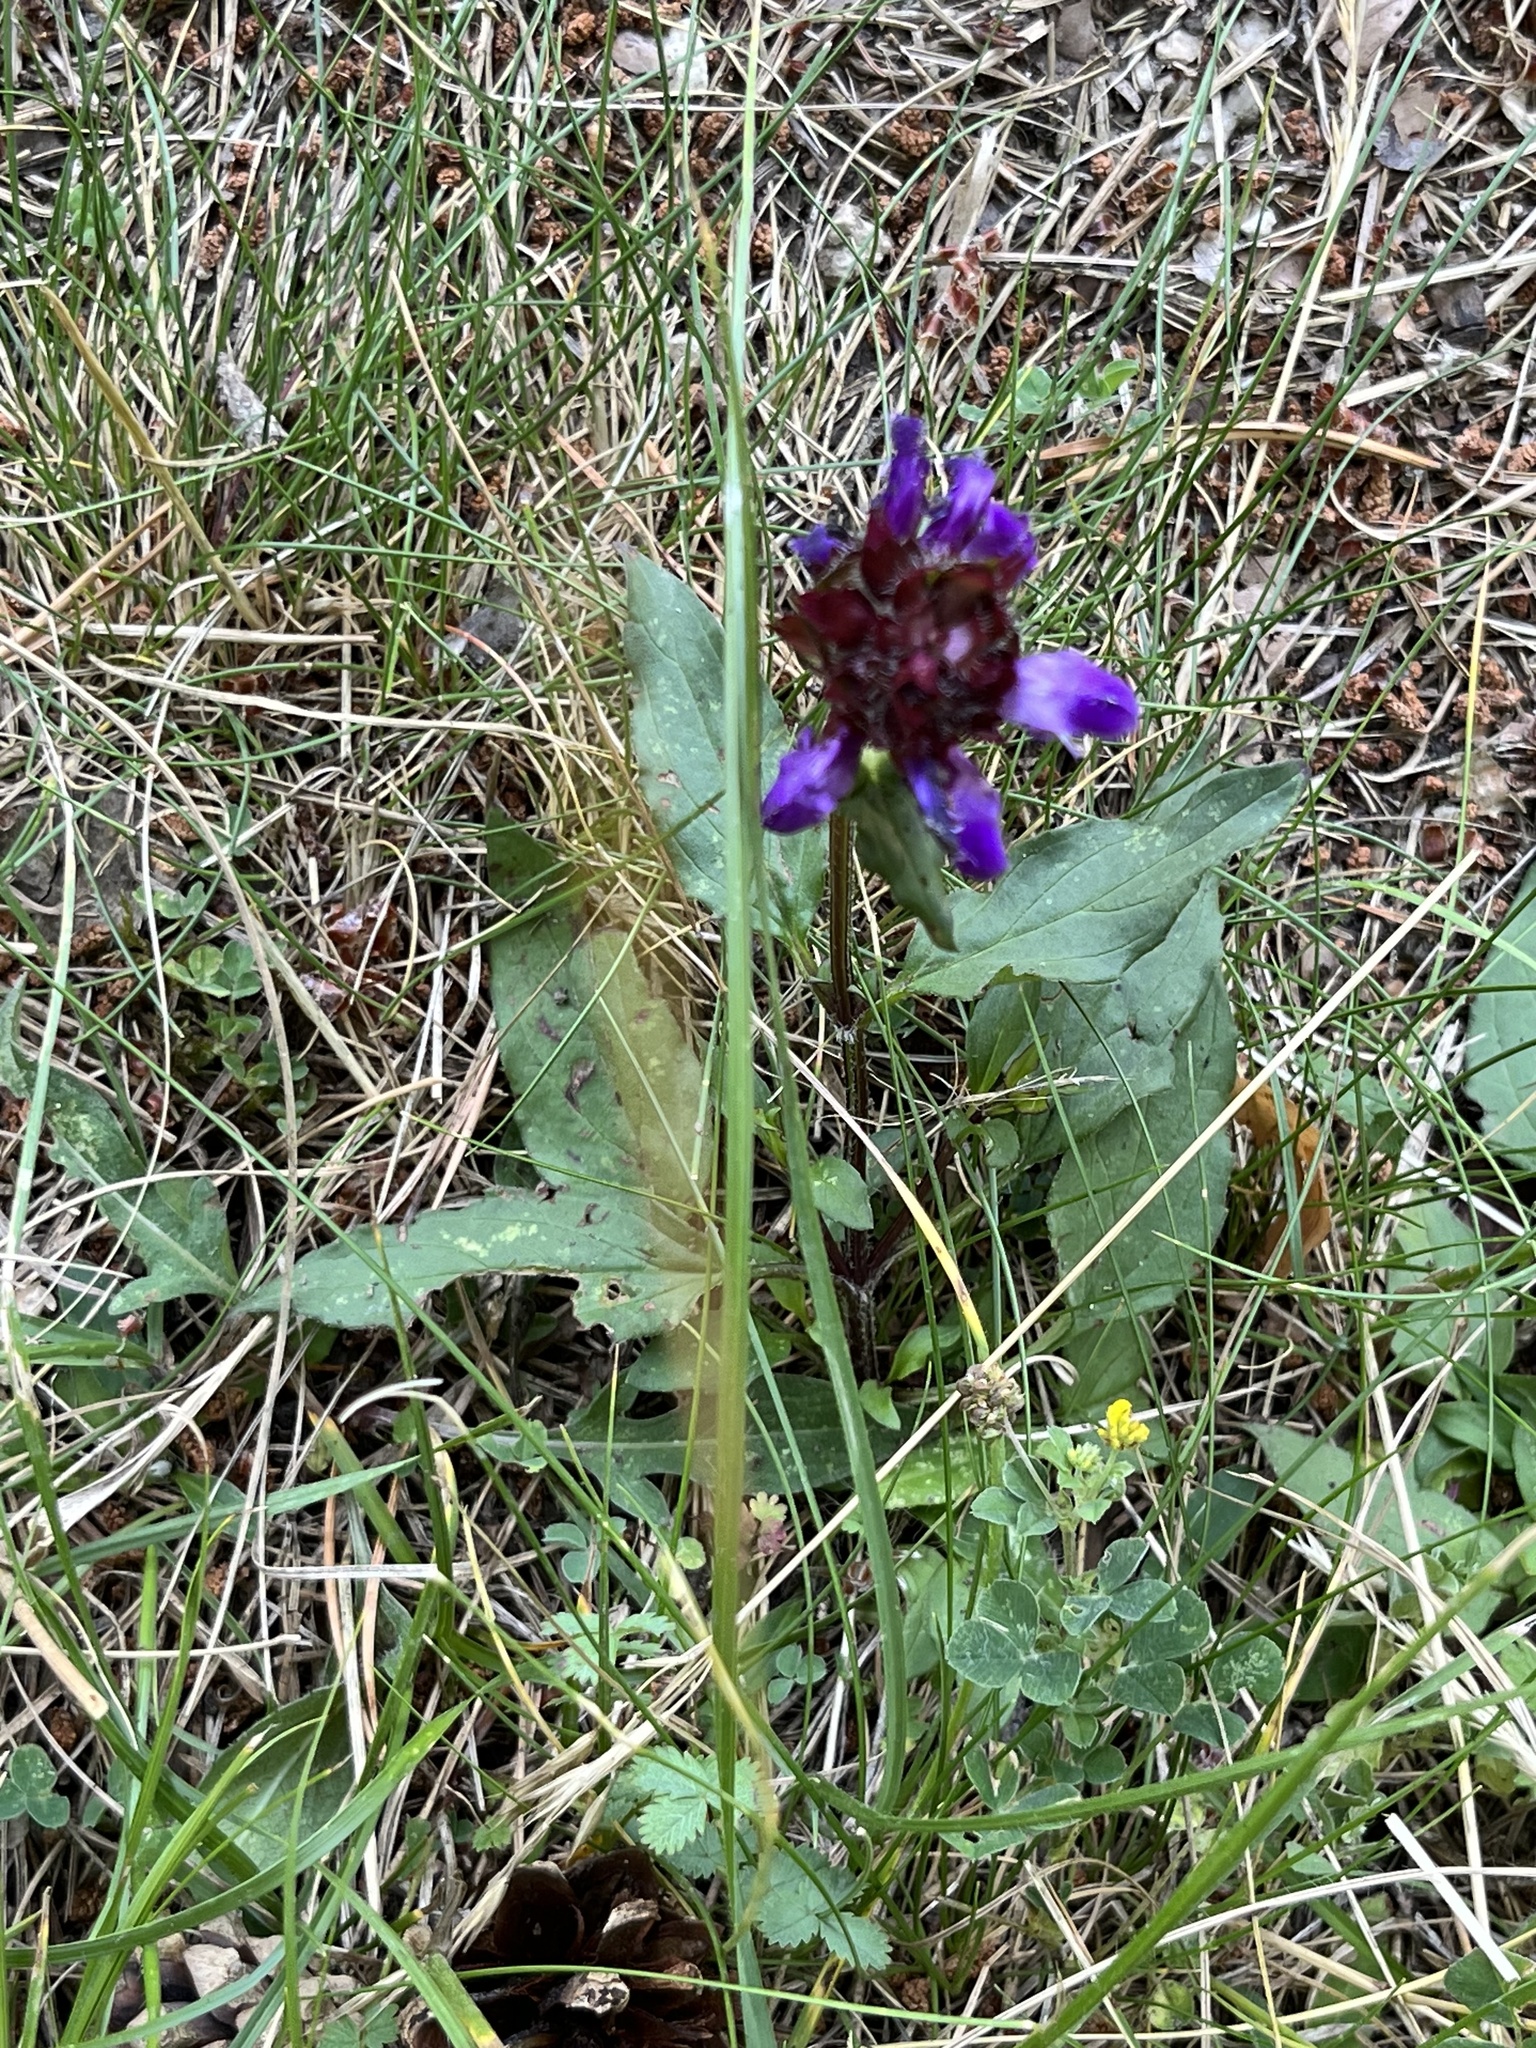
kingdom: Plantae
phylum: Tracheophyta
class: Magnoliopsida
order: Lamiales
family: Lamiaceae
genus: Prunella
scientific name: Prunella grandiflora
